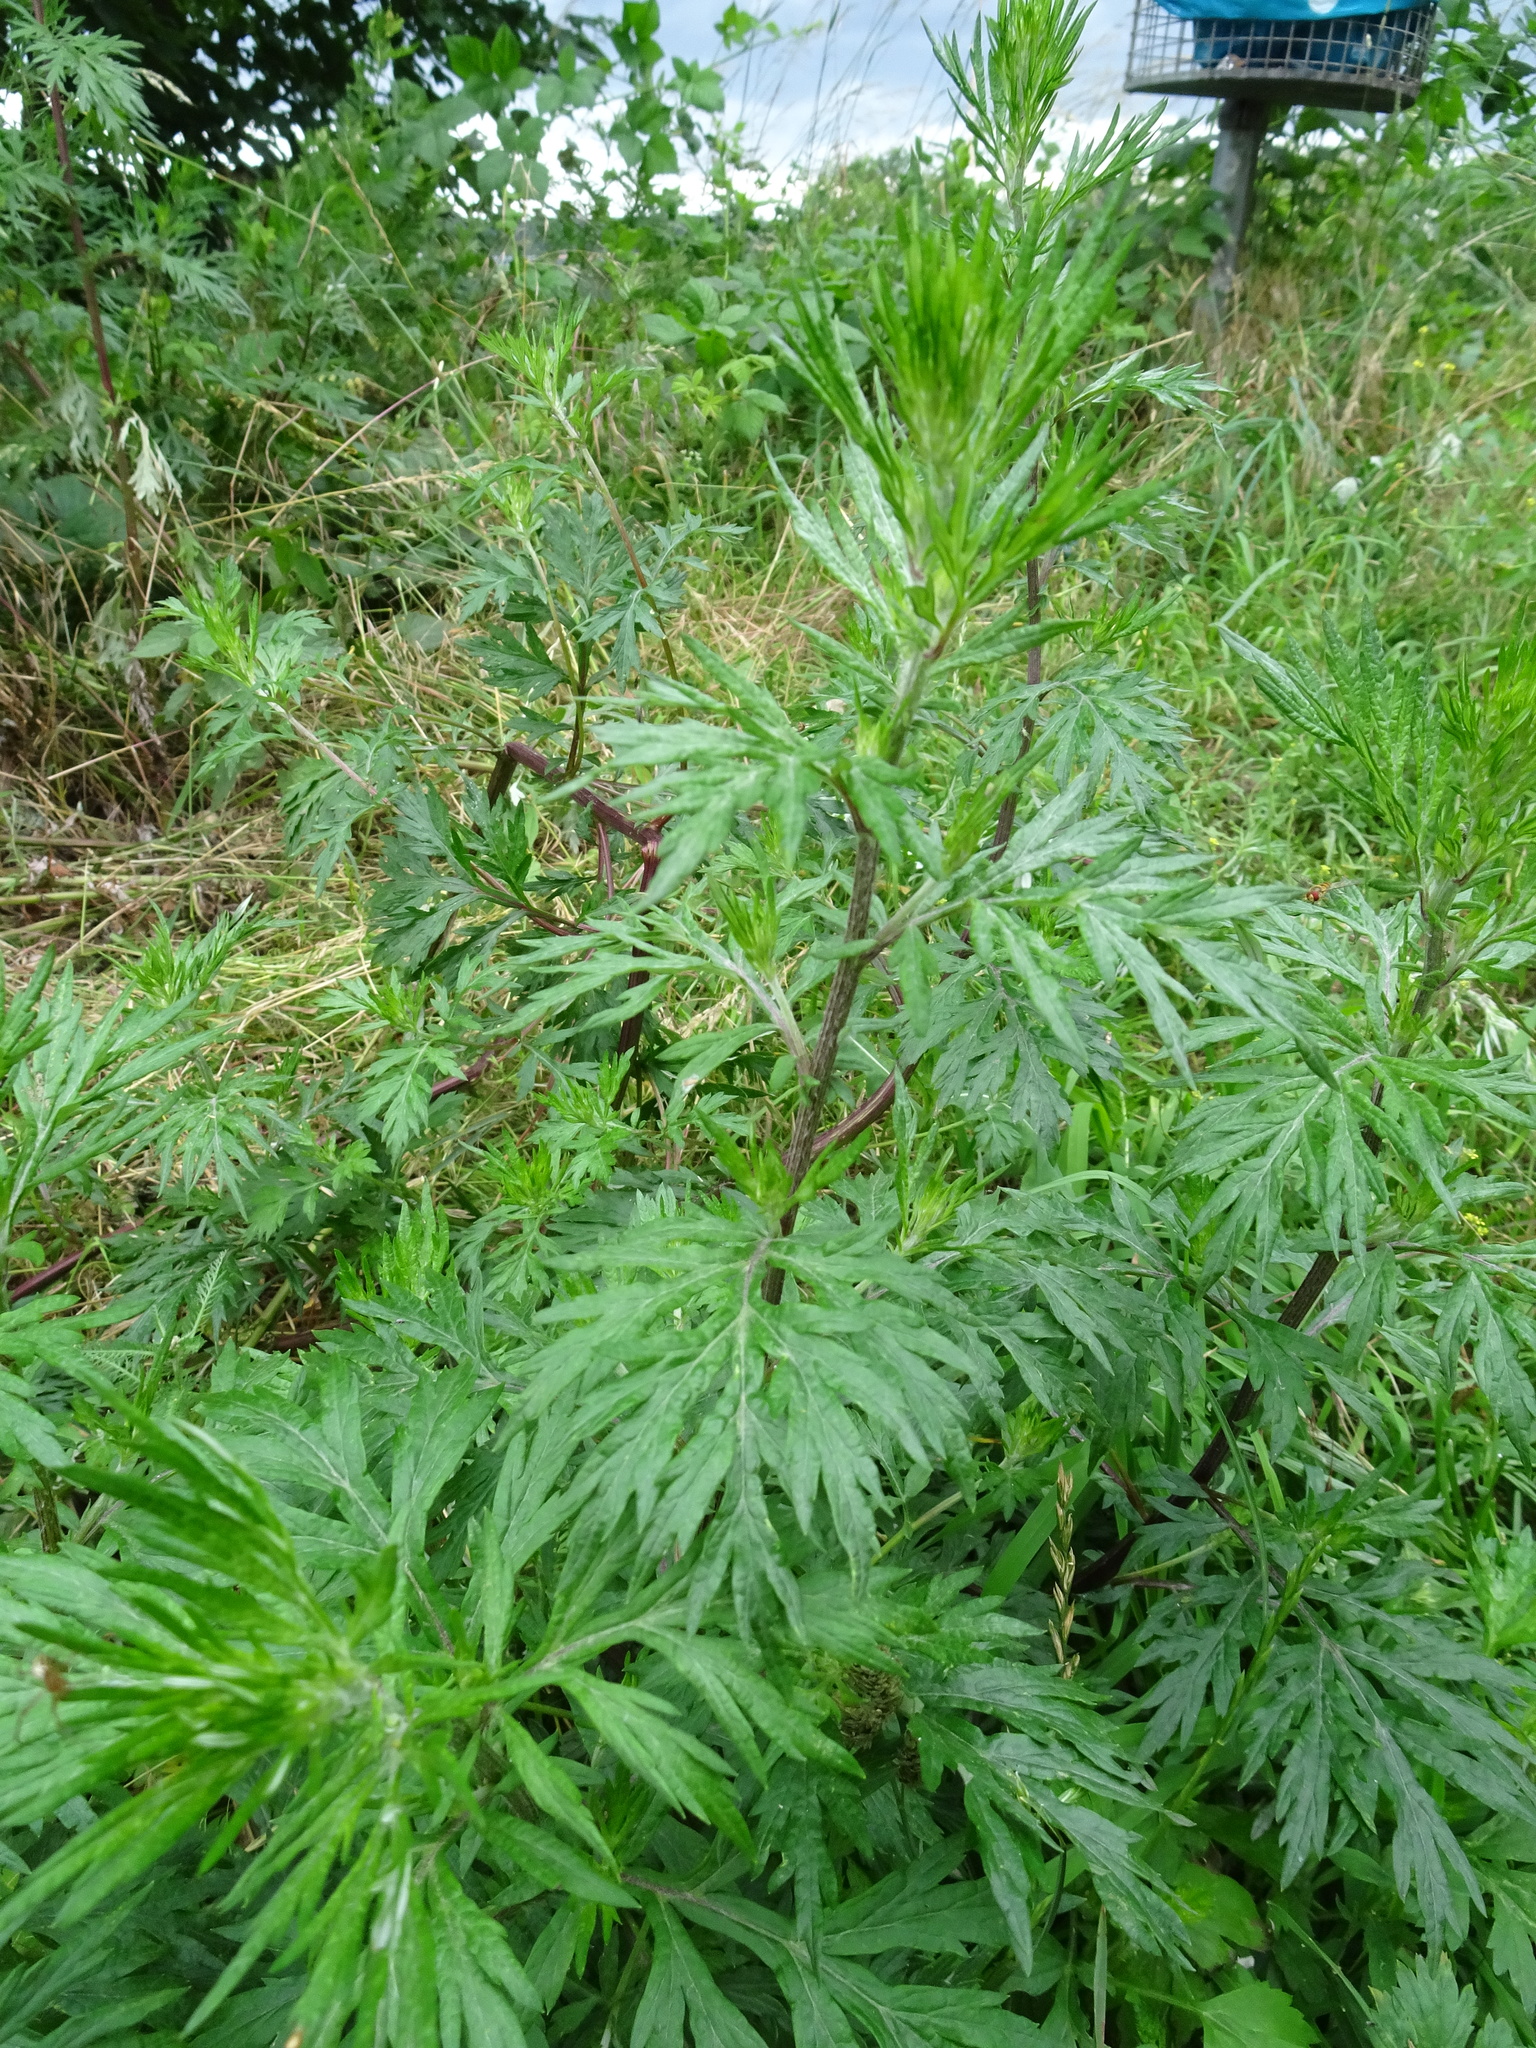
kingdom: Plantae
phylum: Tracheophyta
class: Magnoliopsida
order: Asterales
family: Asteraceae
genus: Artemisia
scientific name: Artemisia vulgaris
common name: Mugwort
